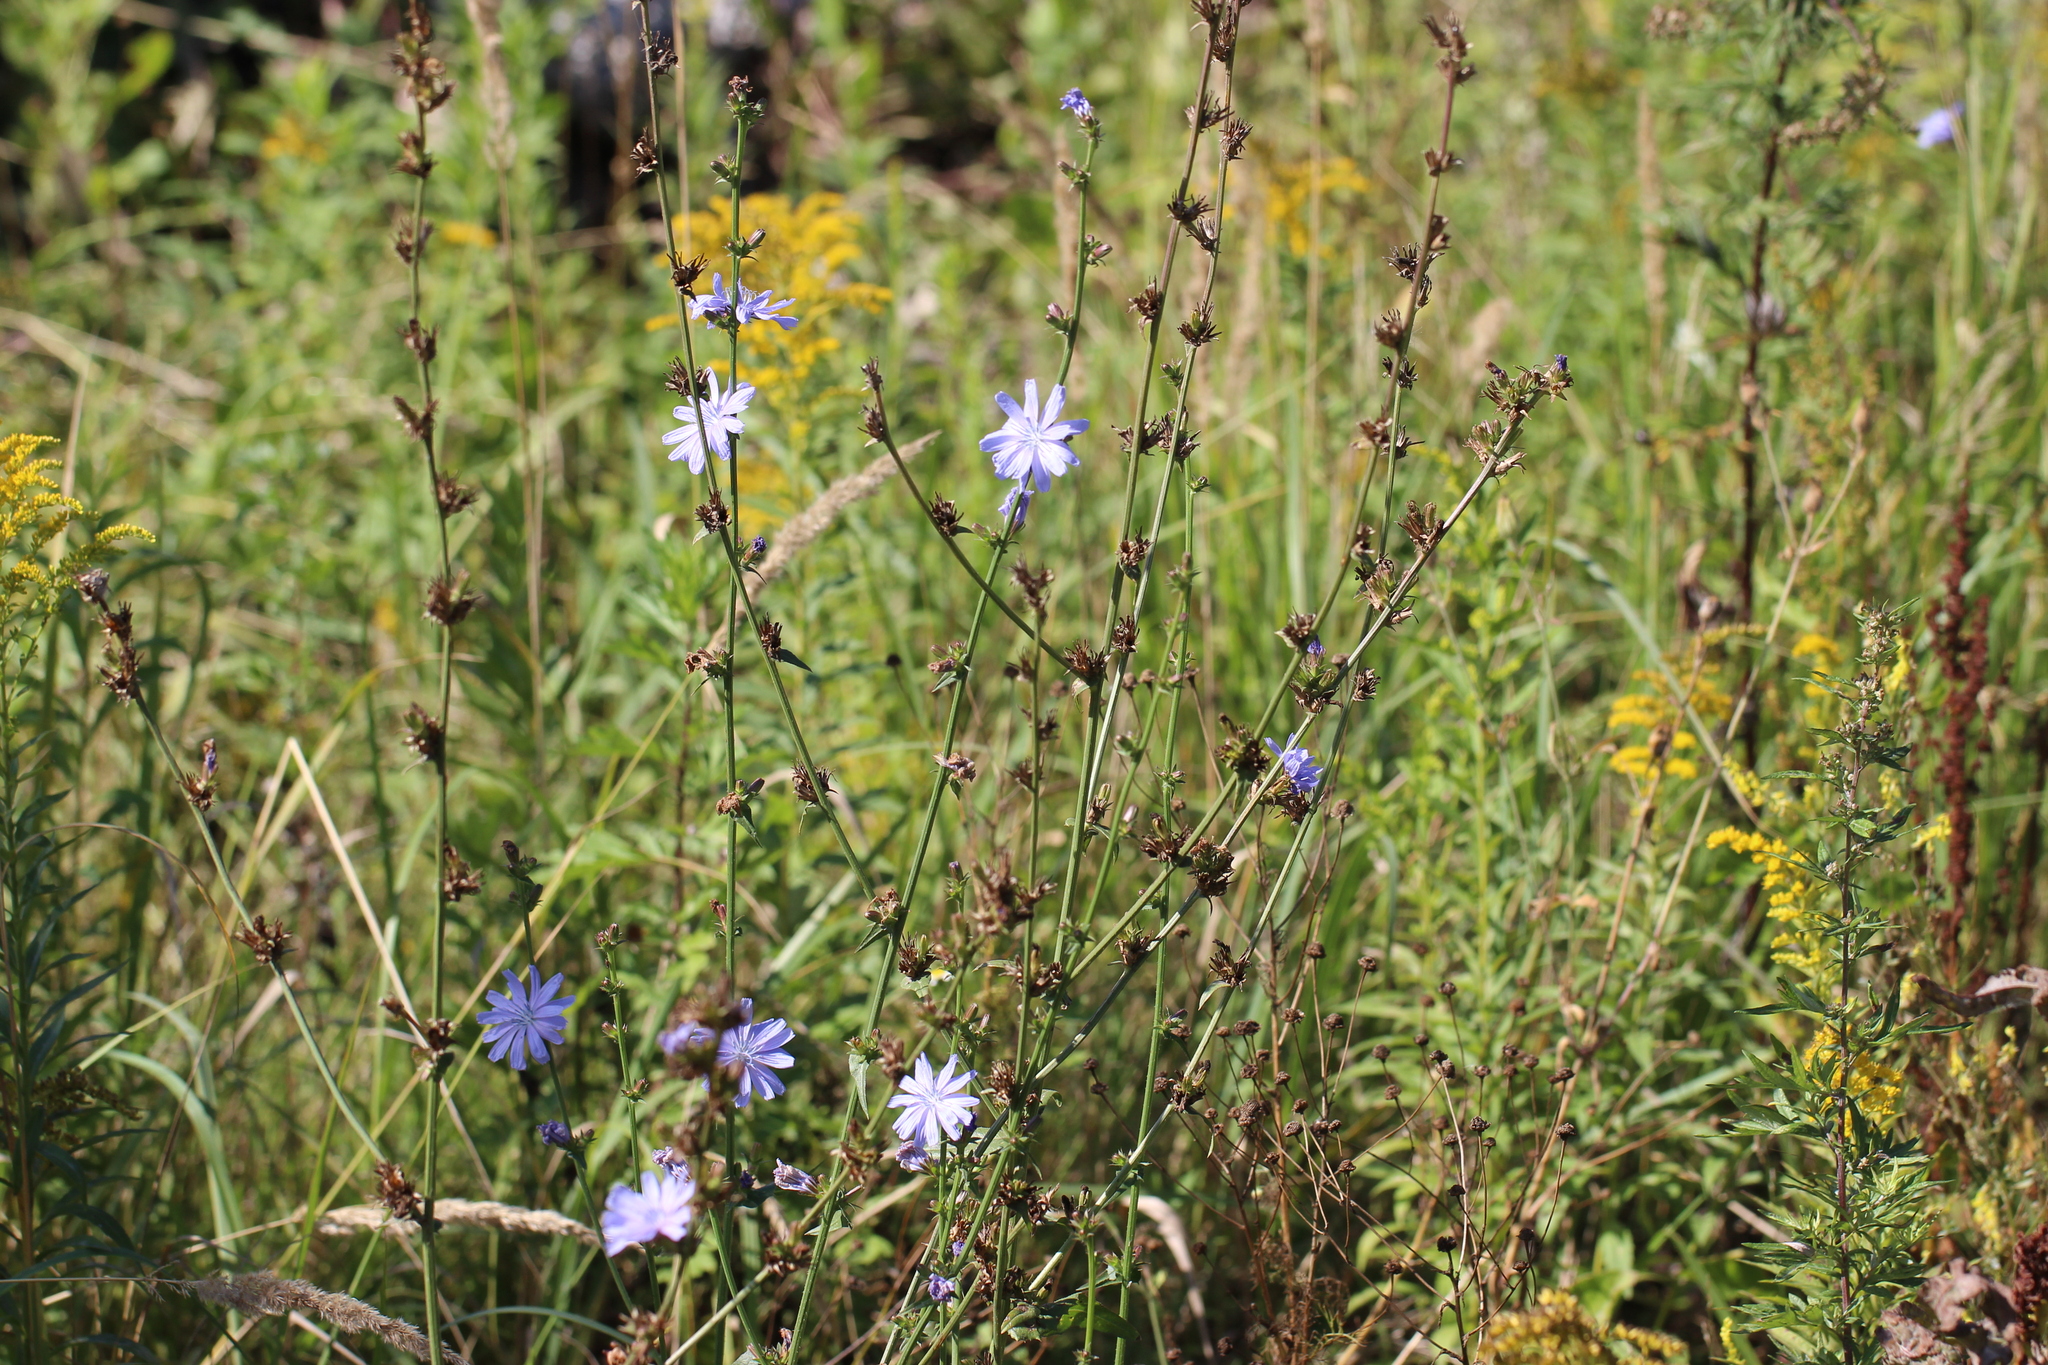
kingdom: Plantae
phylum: Tracheophyta
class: Magnoliopsida
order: Asterales
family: Asteraceae
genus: Cichorium
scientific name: Cichorium intybus
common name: Chicory
